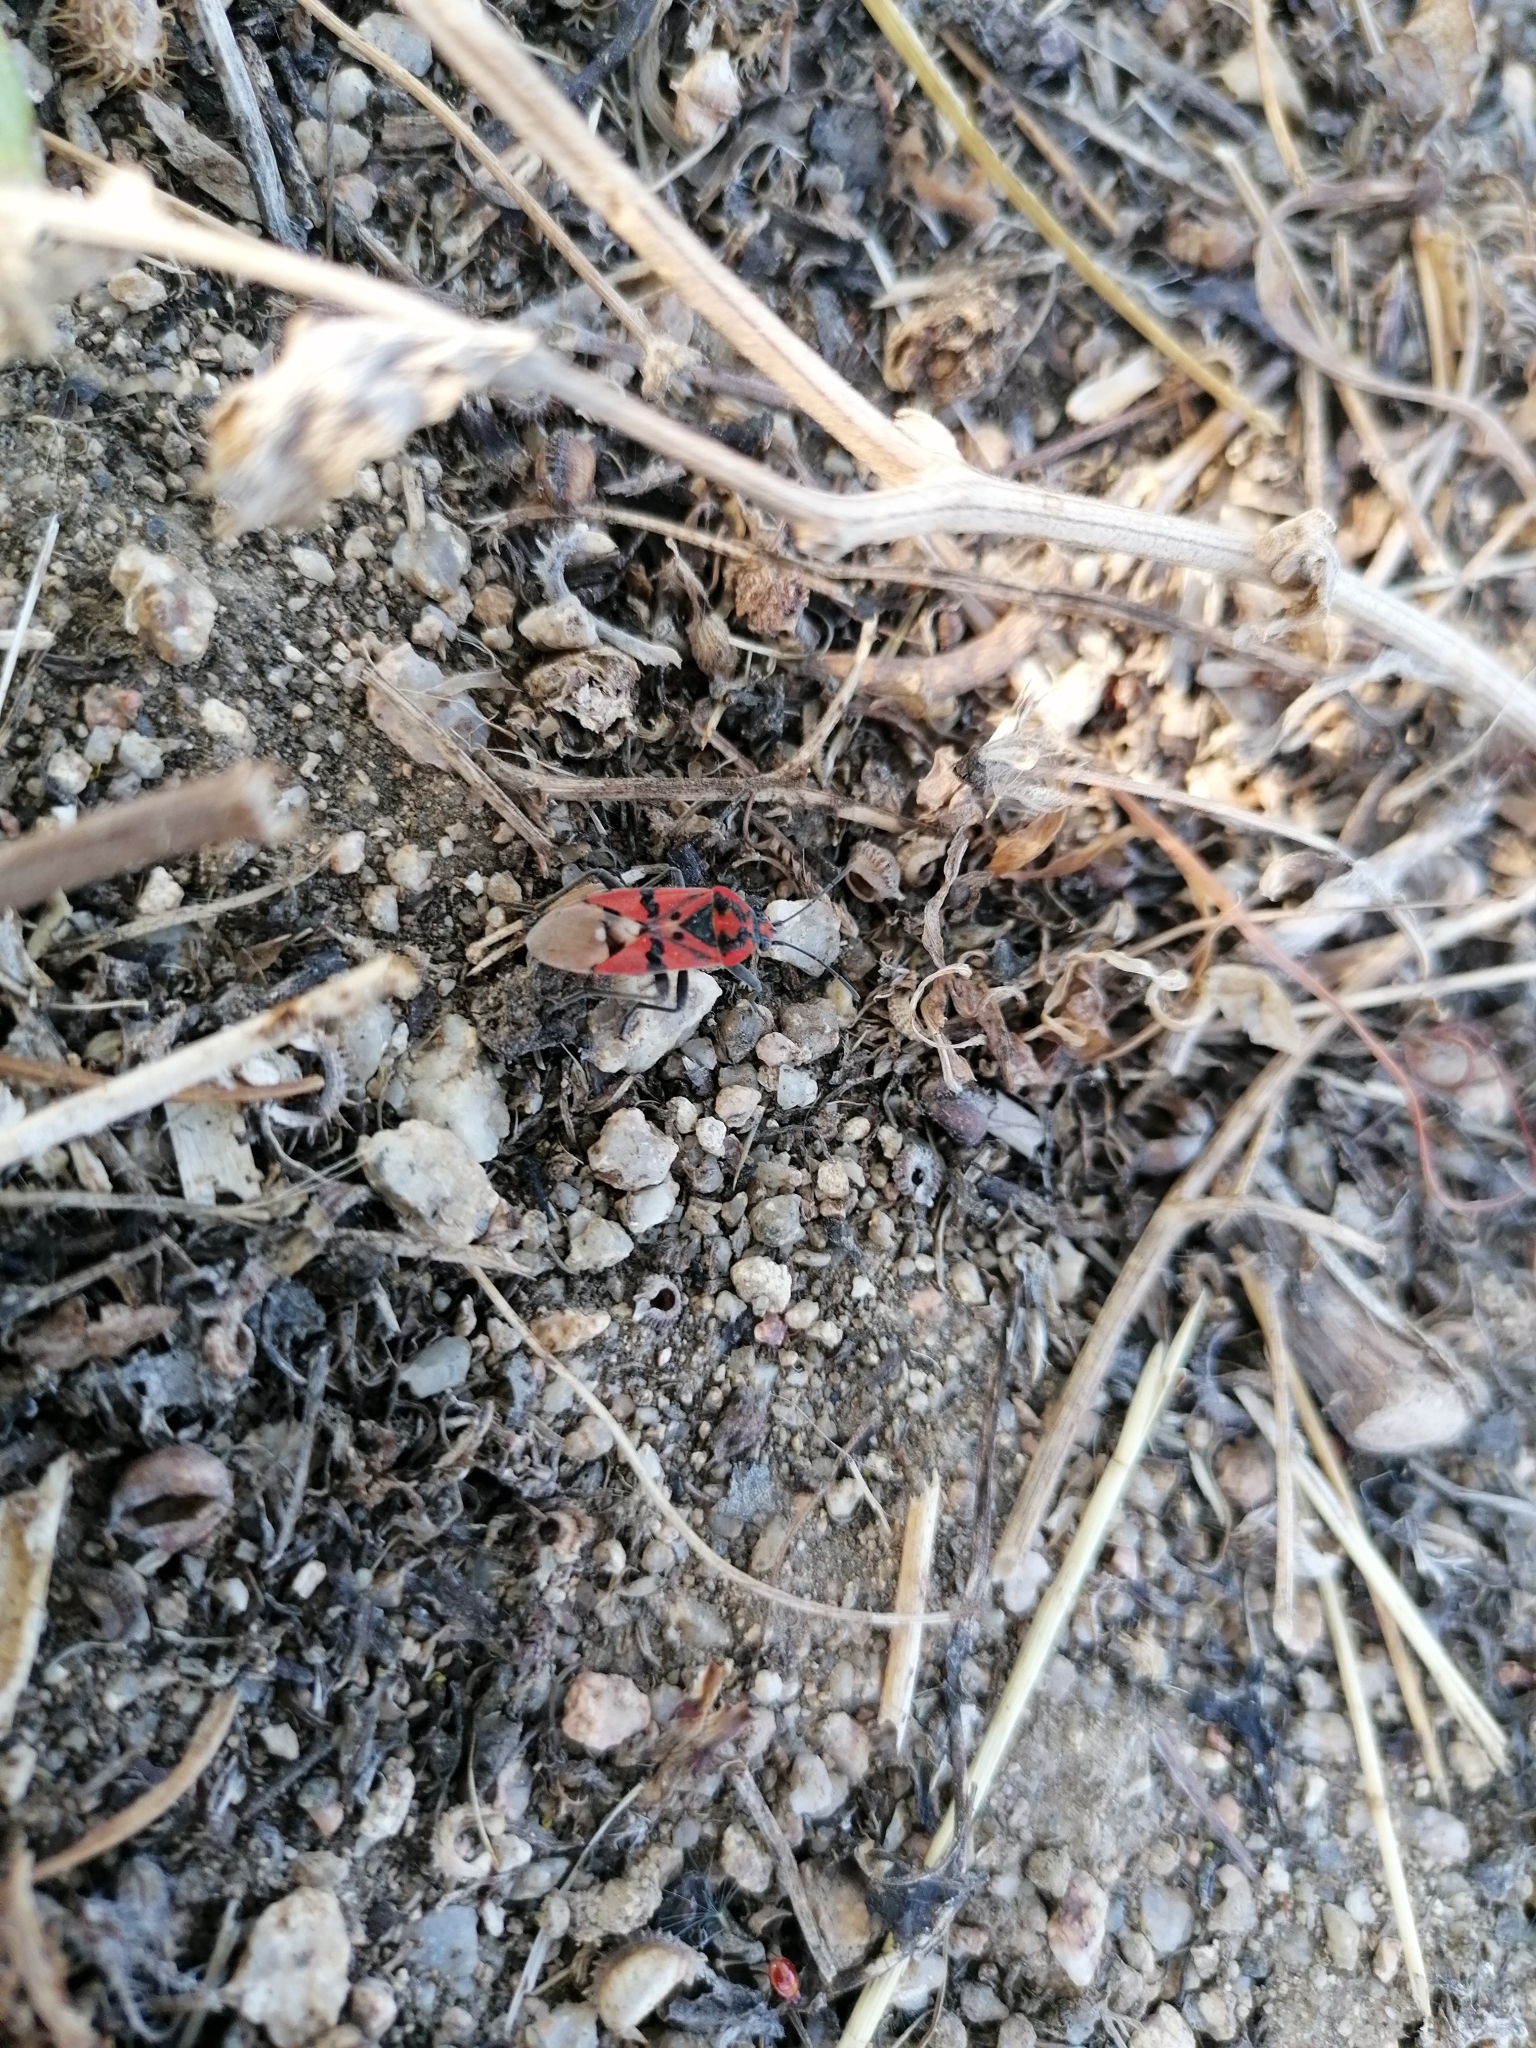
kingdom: Animalia
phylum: Arthropoda
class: Insecta
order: Hemiptera
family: Lygaeidae
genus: Spilostethus
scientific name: Spilostethus pandurus
